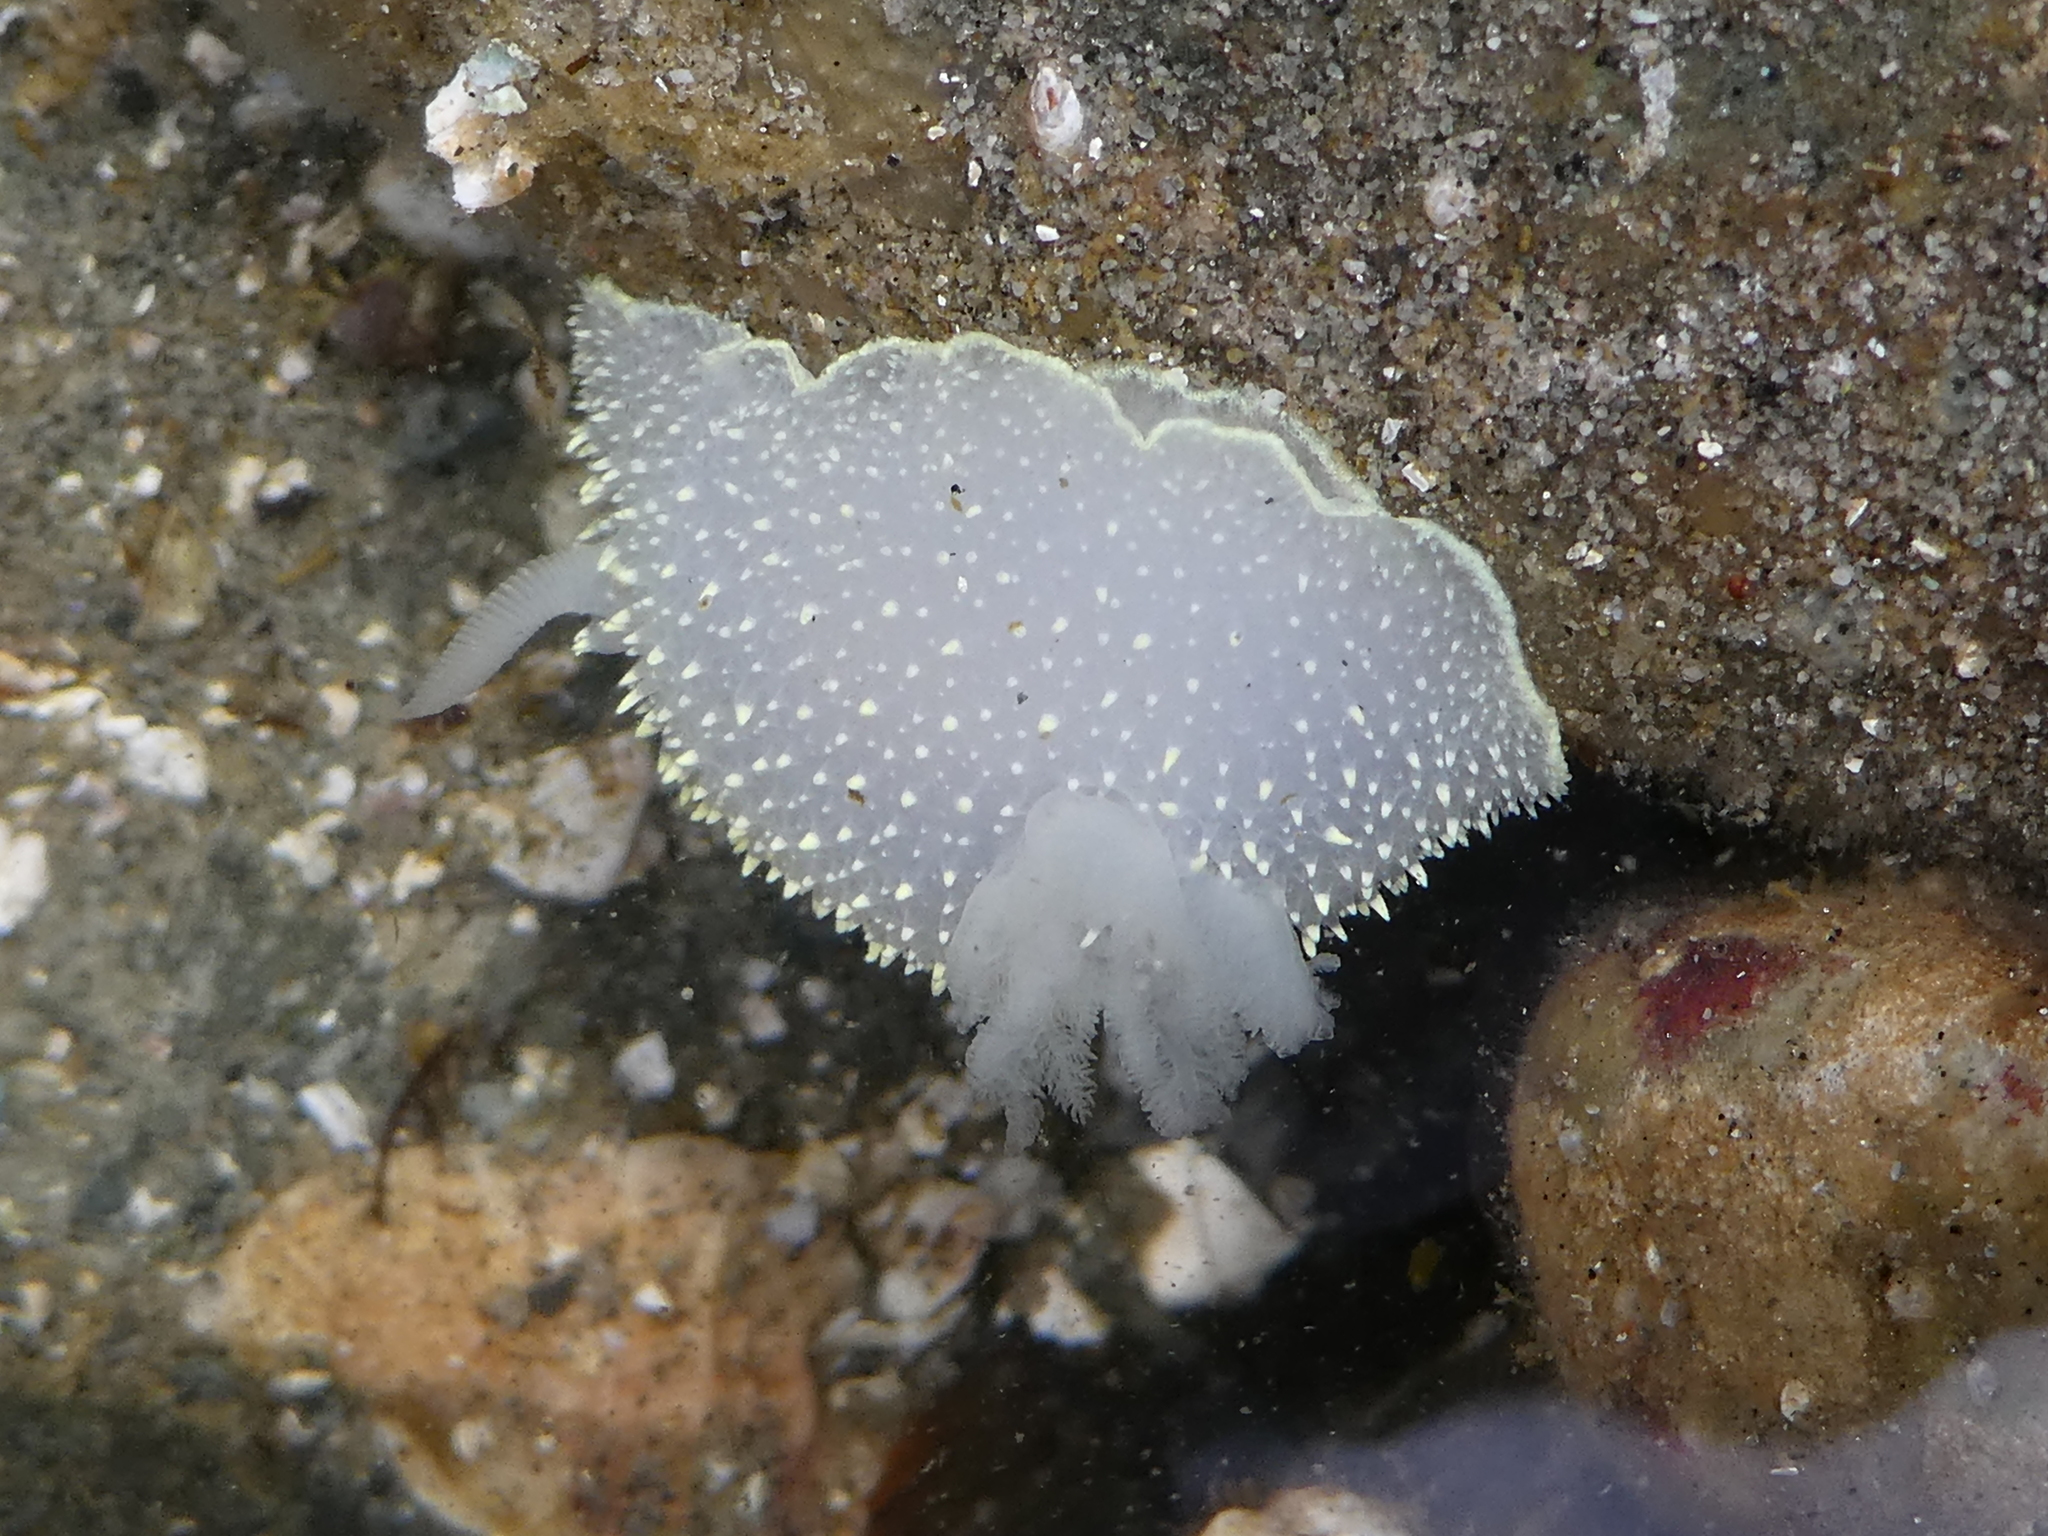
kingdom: Animalia
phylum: Mollusca
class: Gastropoda
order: Nudibranchia
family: Onchidorididae
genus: Acanthodoris
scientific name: Acanthodoris hudsoni
